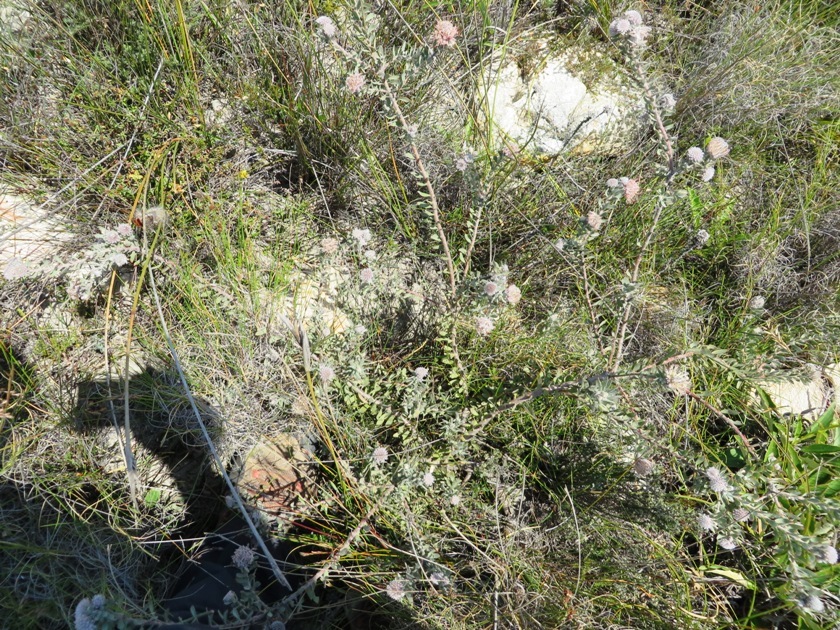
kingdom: Plantae
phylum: Tracheophyta
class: Magnoliopsida
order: Proteales
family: Proteaceae
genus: Leucospermum
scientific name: Leucospermum calligerum
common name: Arid pincushion
